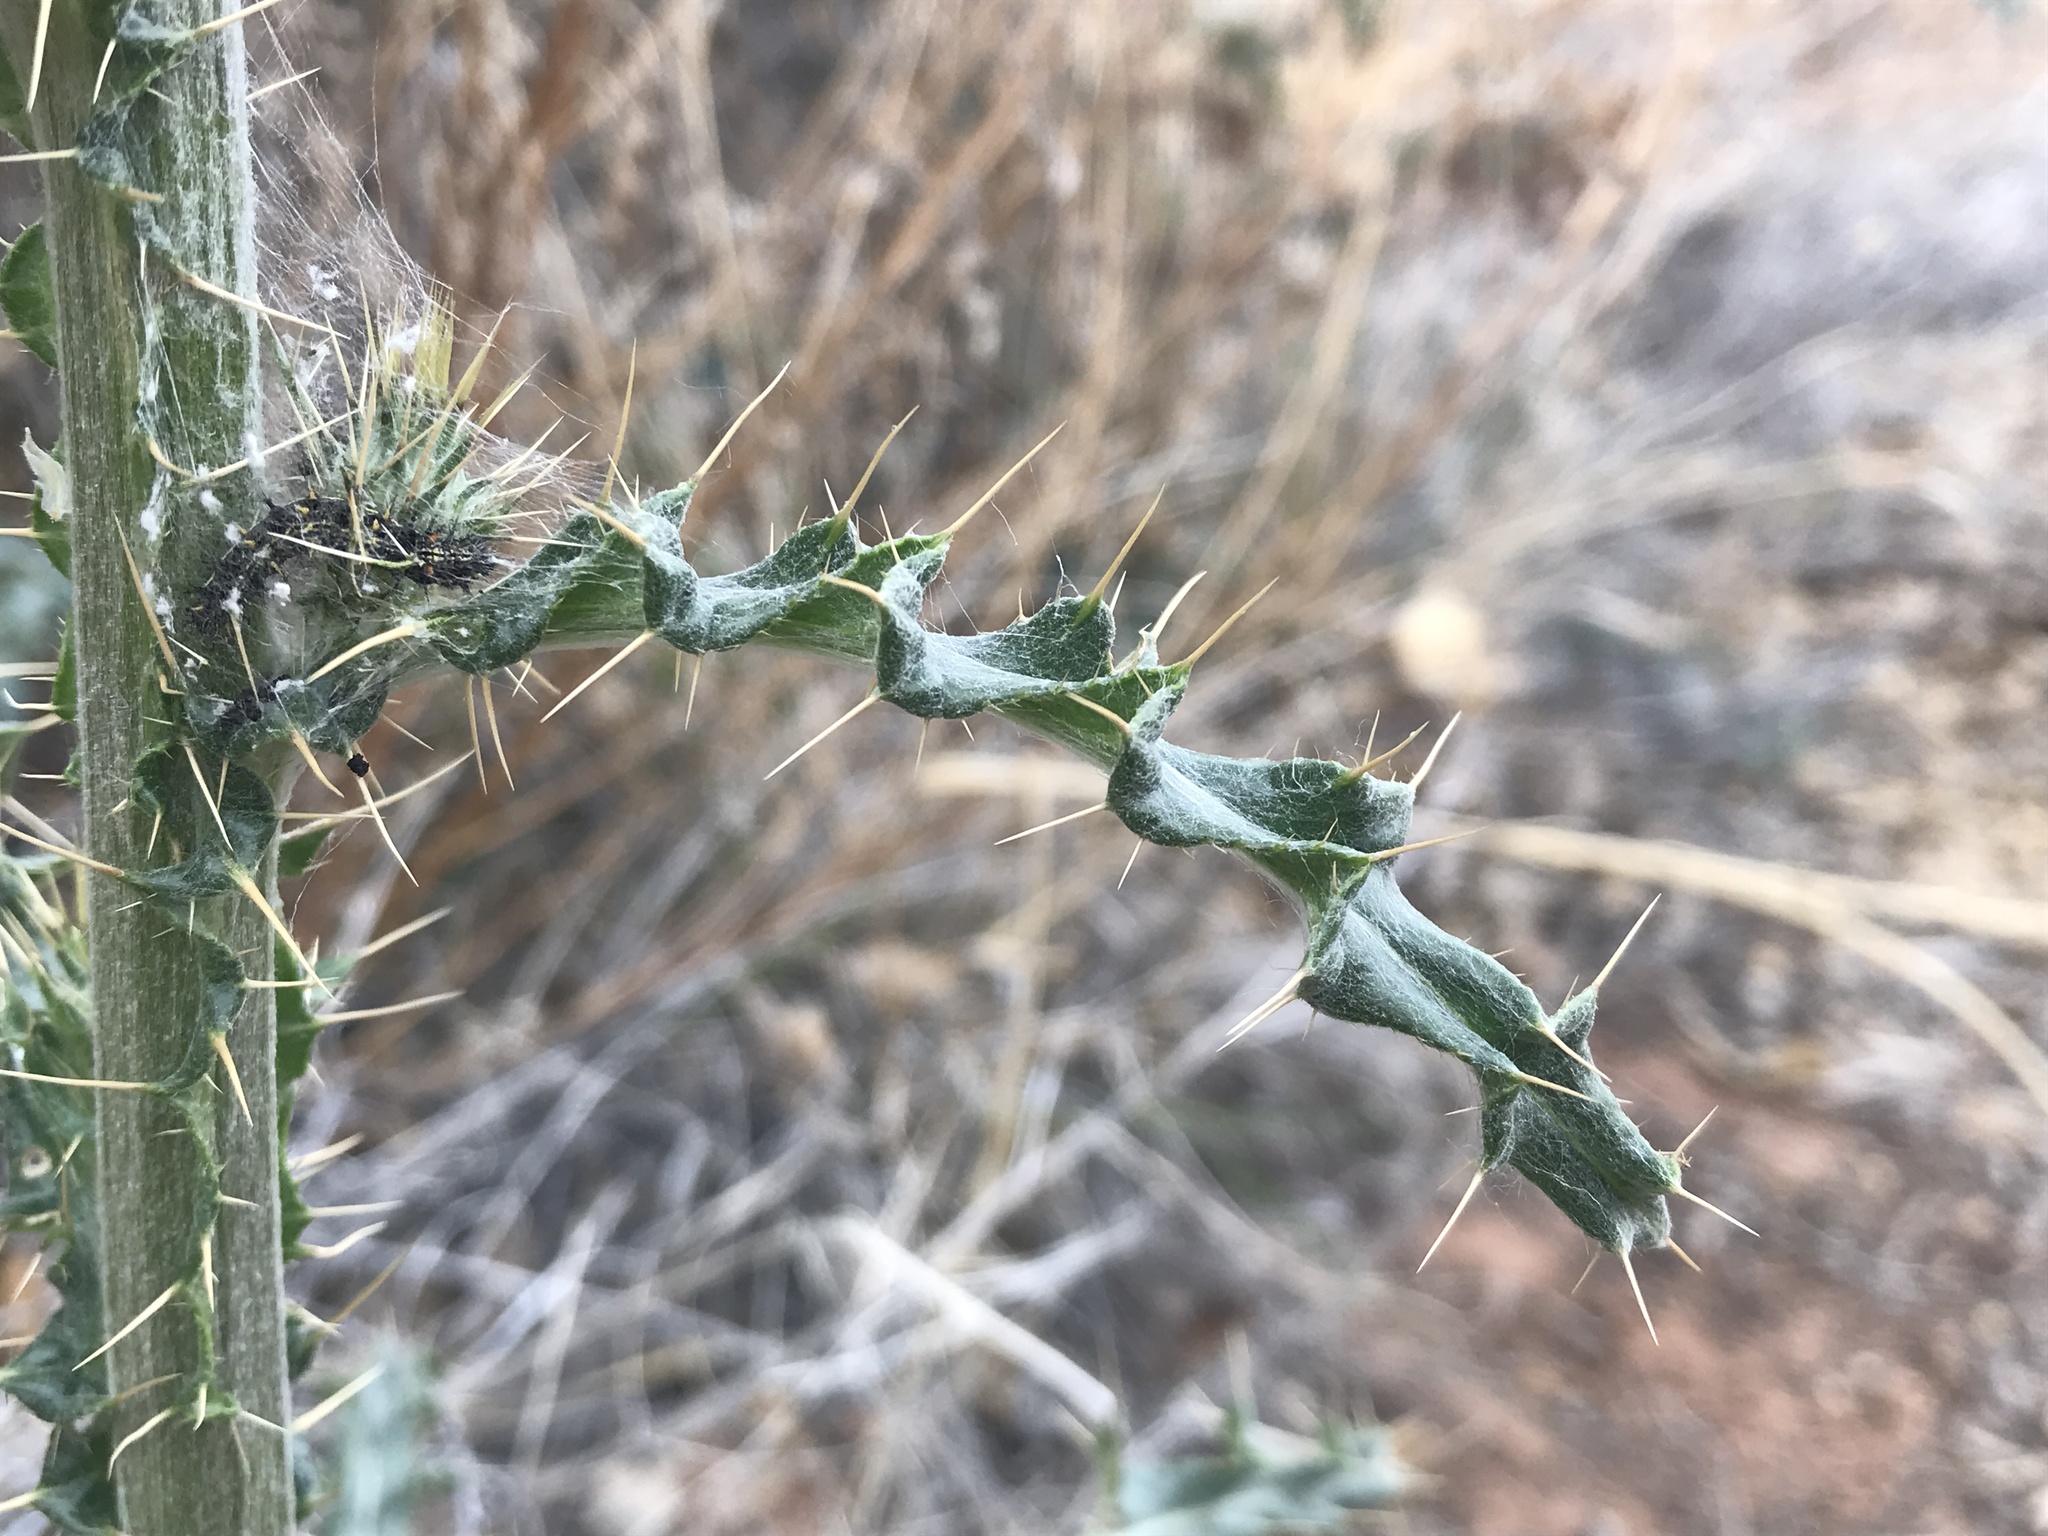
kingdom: Plantae
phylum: Tracheophyta
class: Magnoliopsida
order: Asterales
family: Asteraceae
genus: Cirsium
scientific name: Cirsium neomexicanum
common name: New mexico thistle
